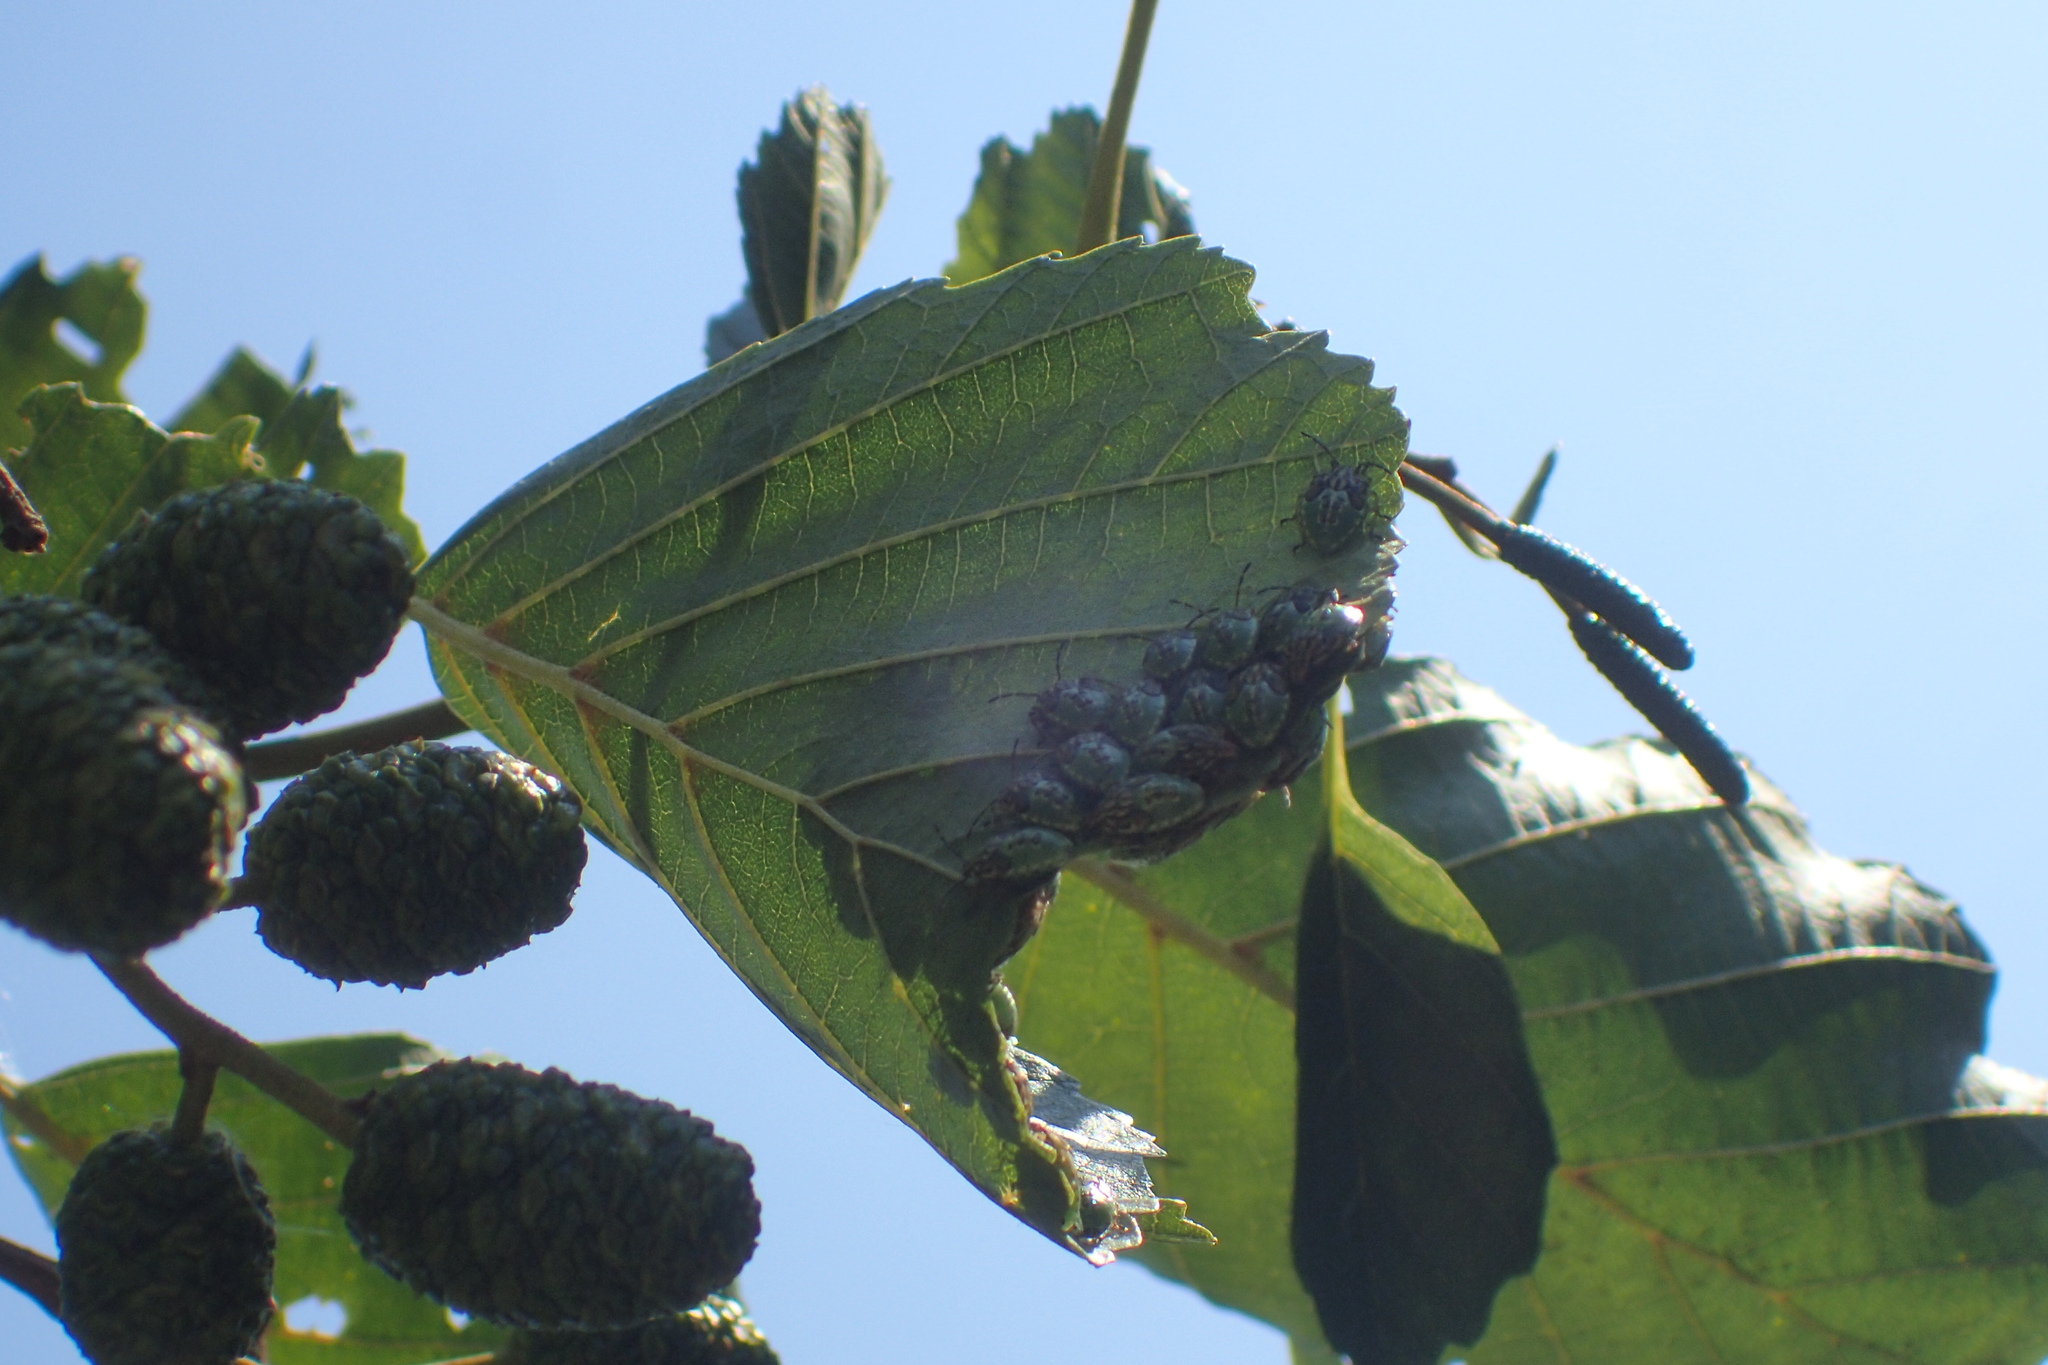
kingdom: Animalia
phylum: Arthropoda
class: Insecta
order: Hemiptera
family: Acanthosomatidae
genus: Elasmucha
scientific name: Elasmucha grisea
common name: Parent bug
